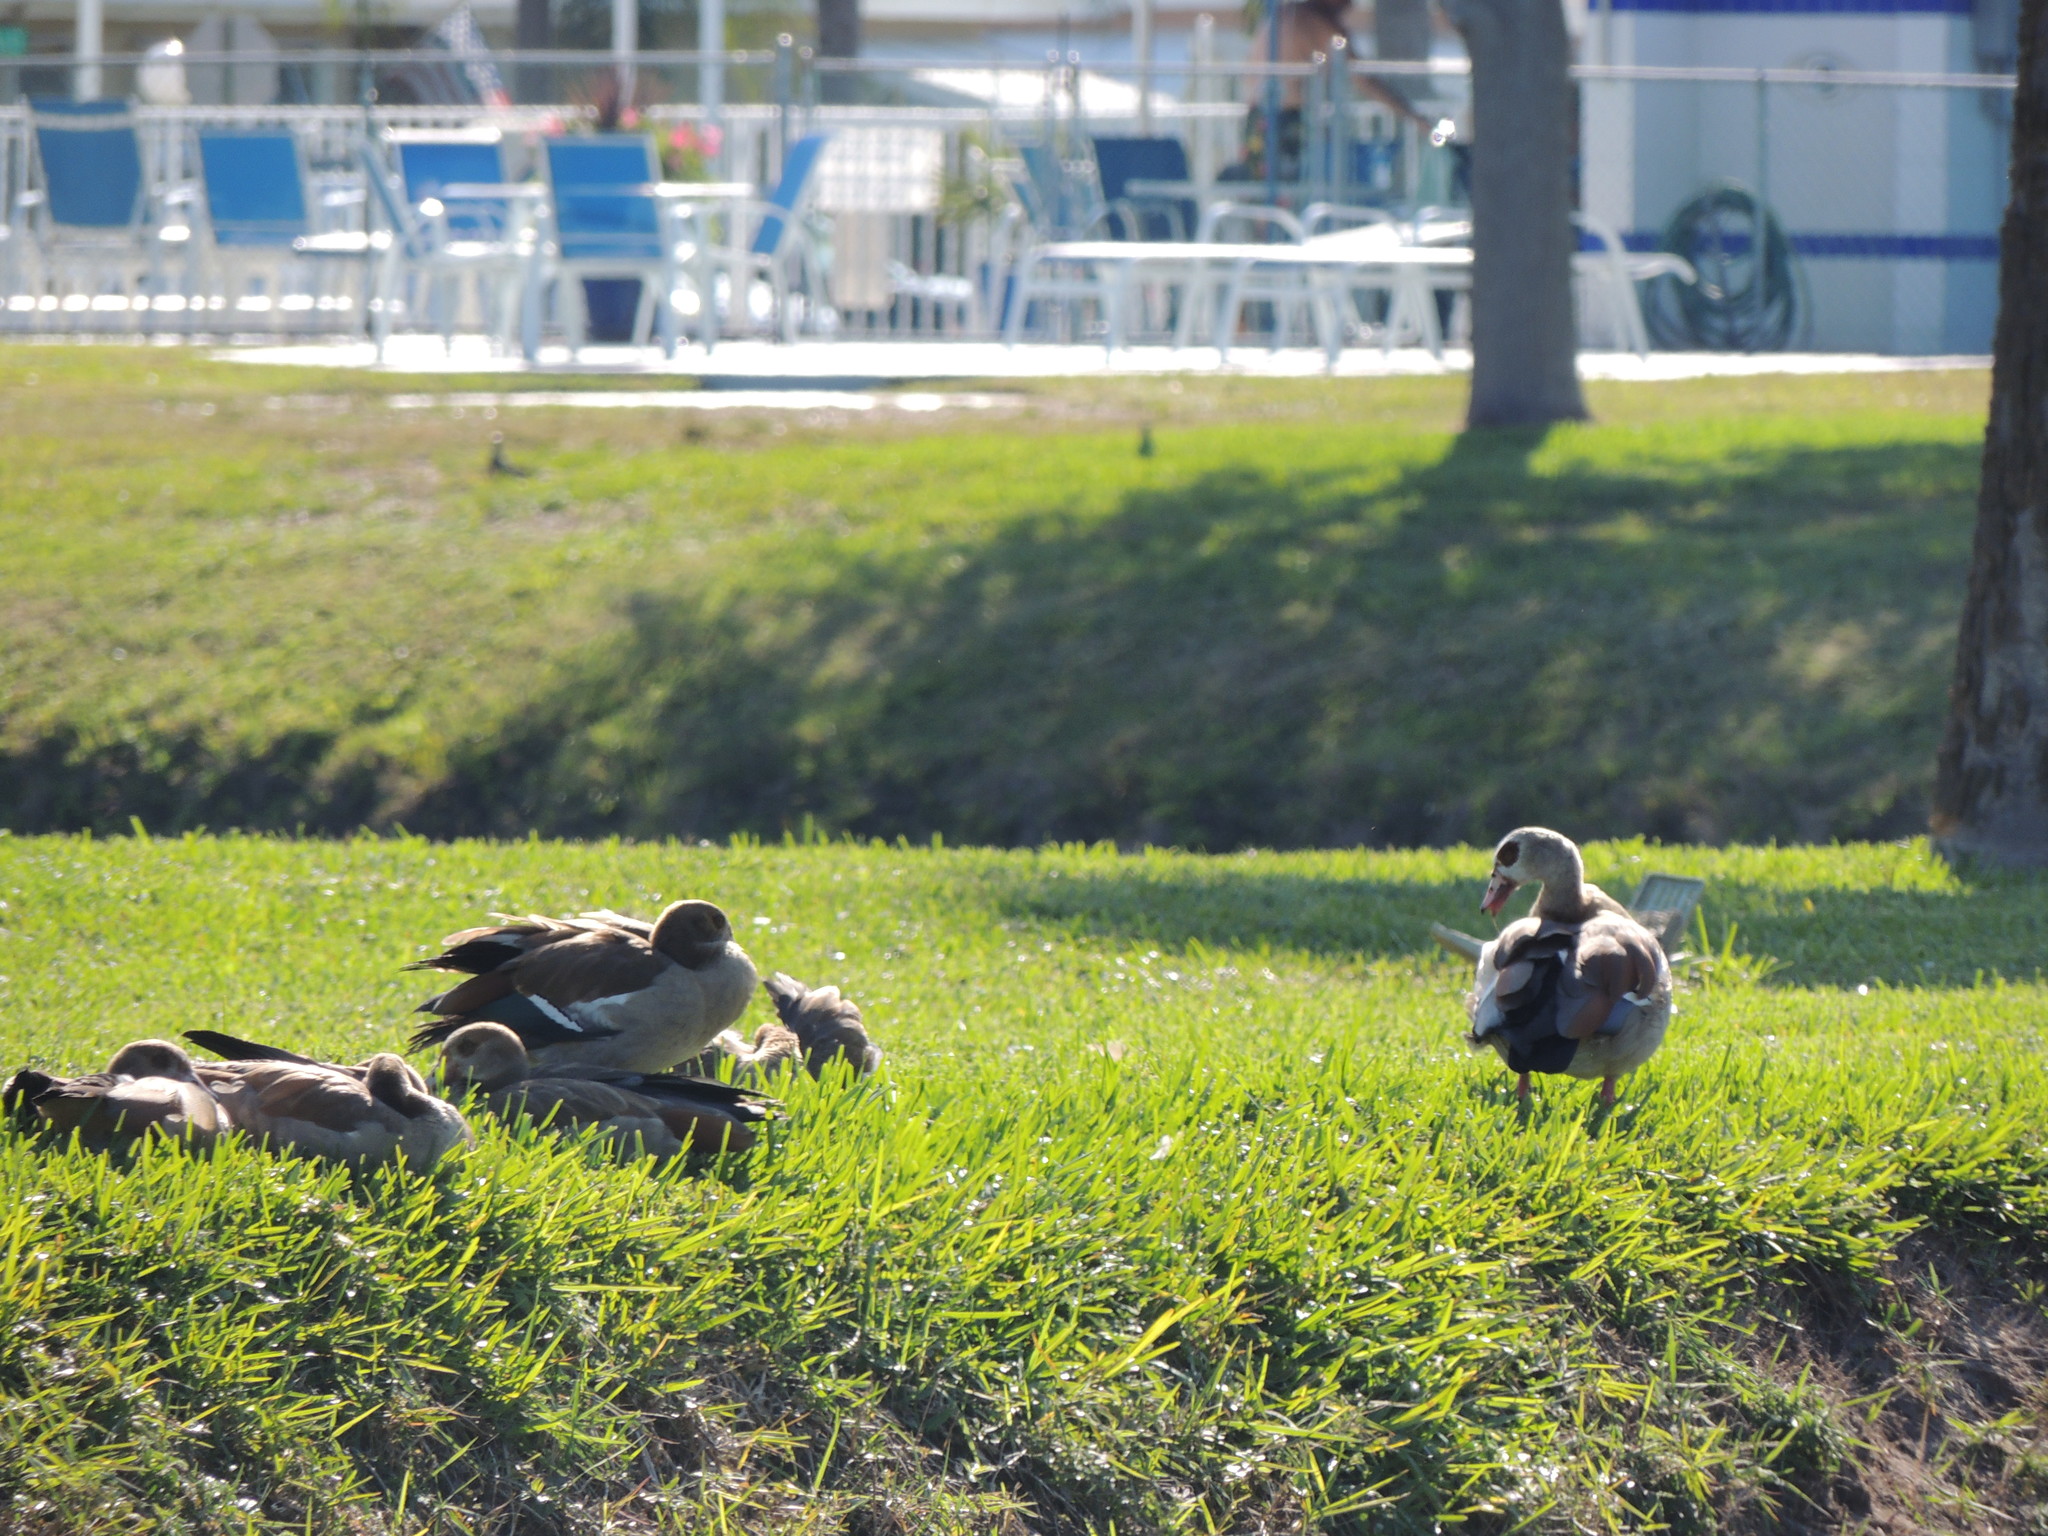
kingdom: Animalia
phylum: Chordata
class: Aves
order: Anseriformes
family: Anatidae
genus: Alopochen
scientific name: Alopochen aegyptiaca
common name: Egyptian goose
